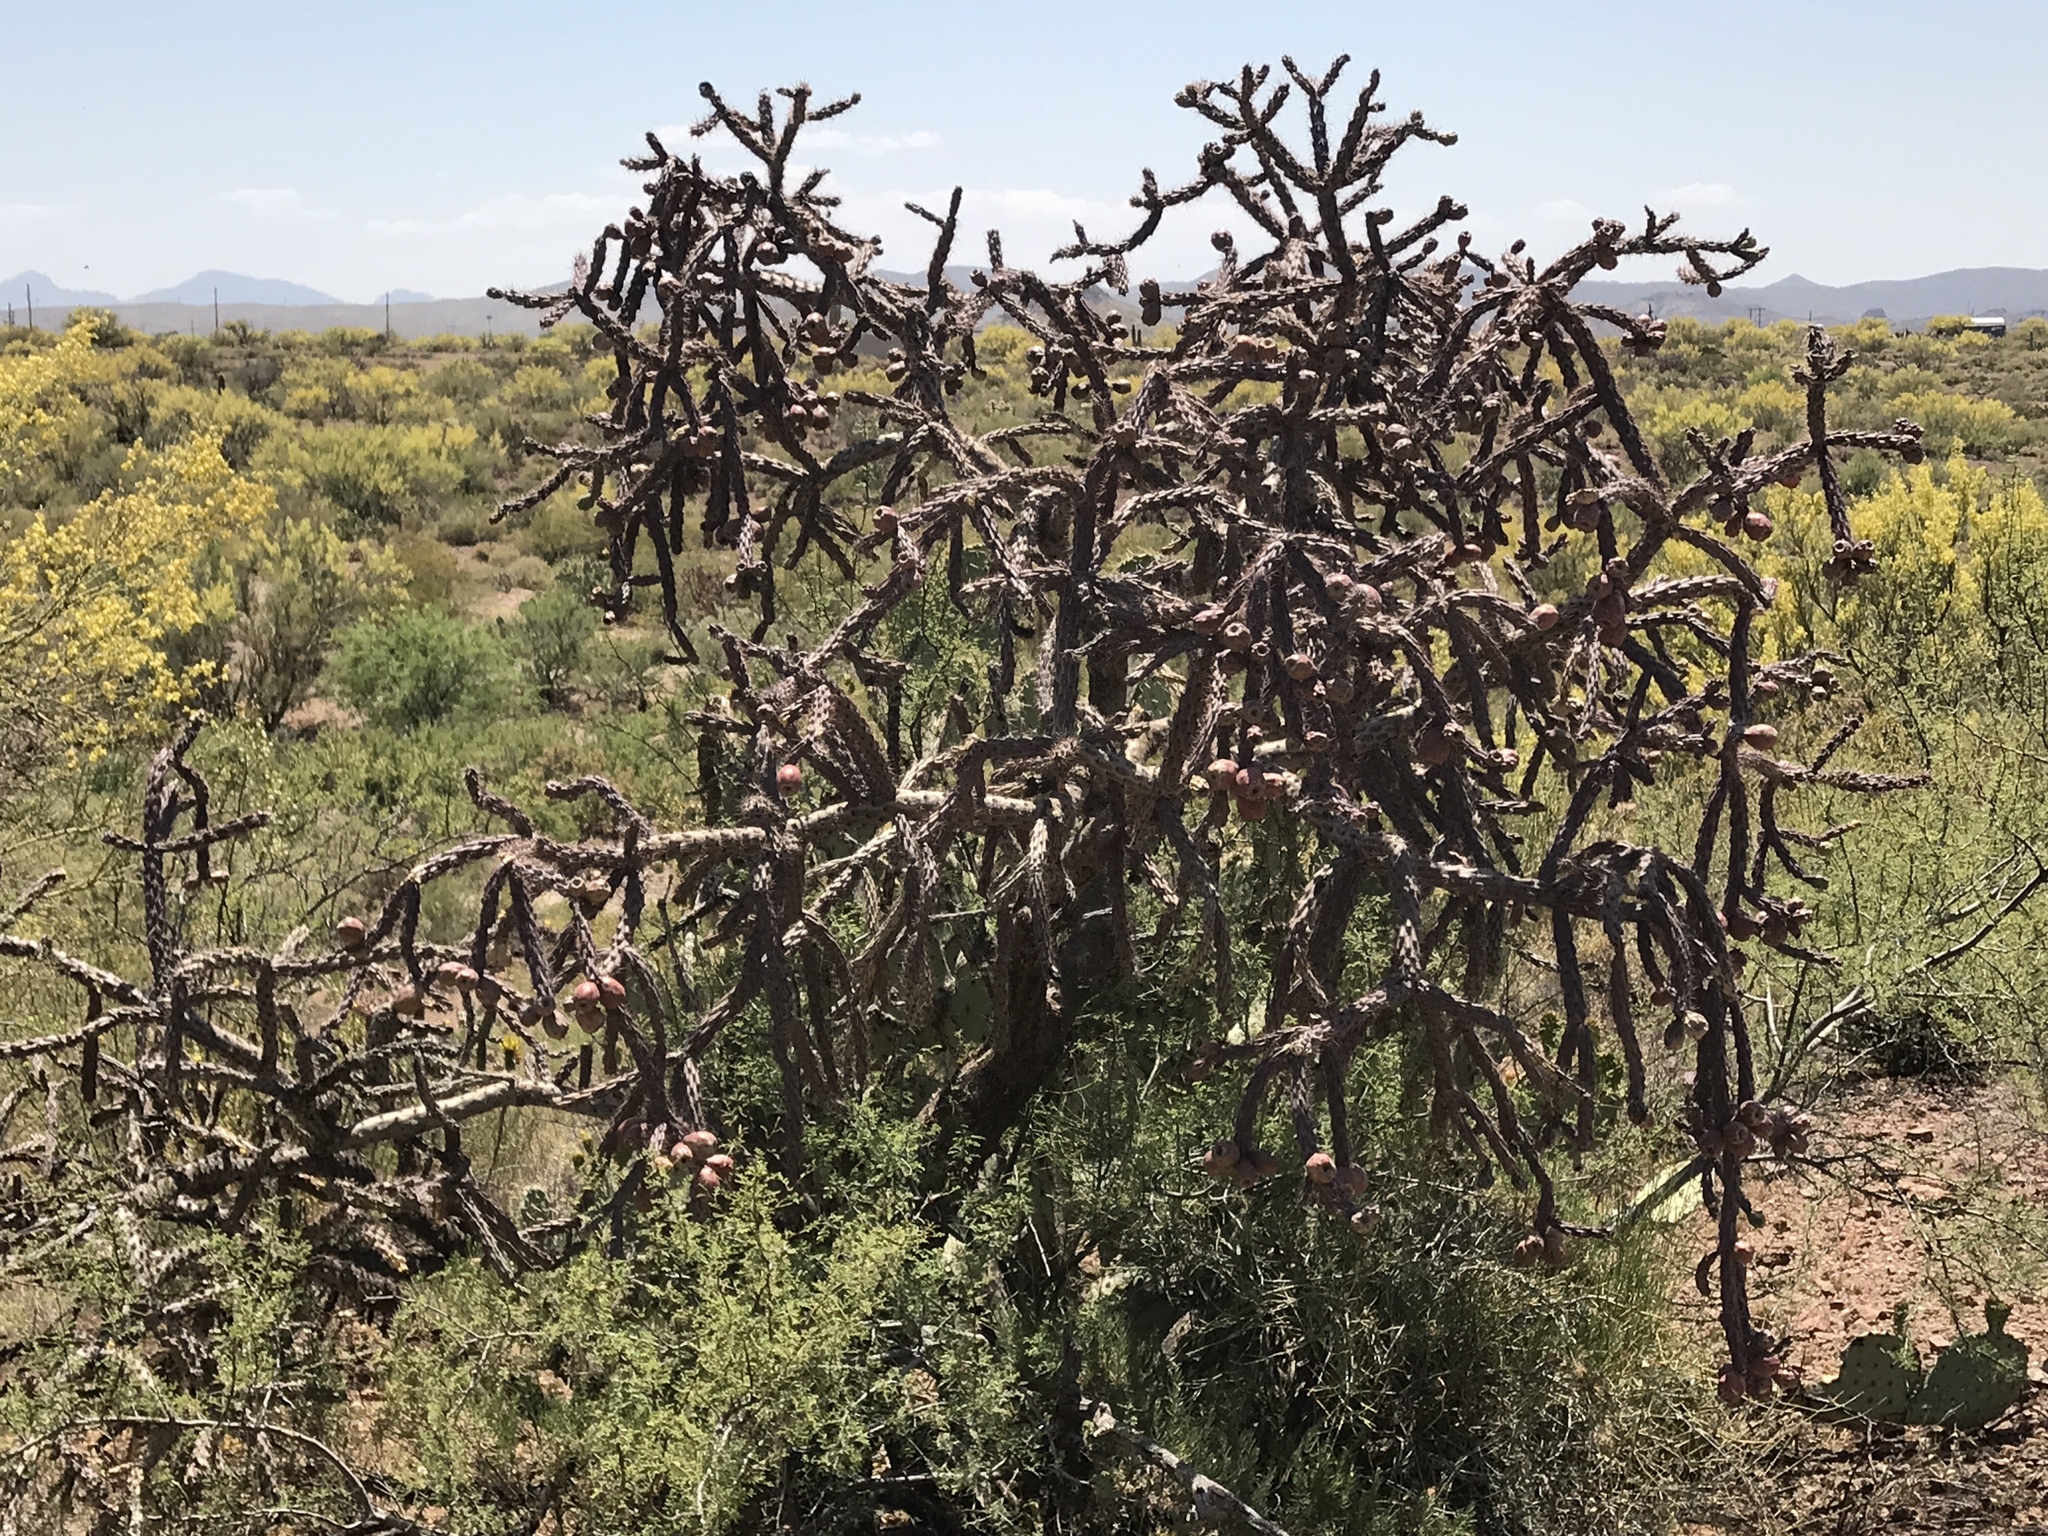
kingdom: Plantae
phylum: Tracheophyta
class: Magnoliopsida
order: Caryophyllales
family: Cactaceae
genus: Cylindropuntia
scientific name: Cylindropuntia imbricata
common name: Candelabrum cactus
